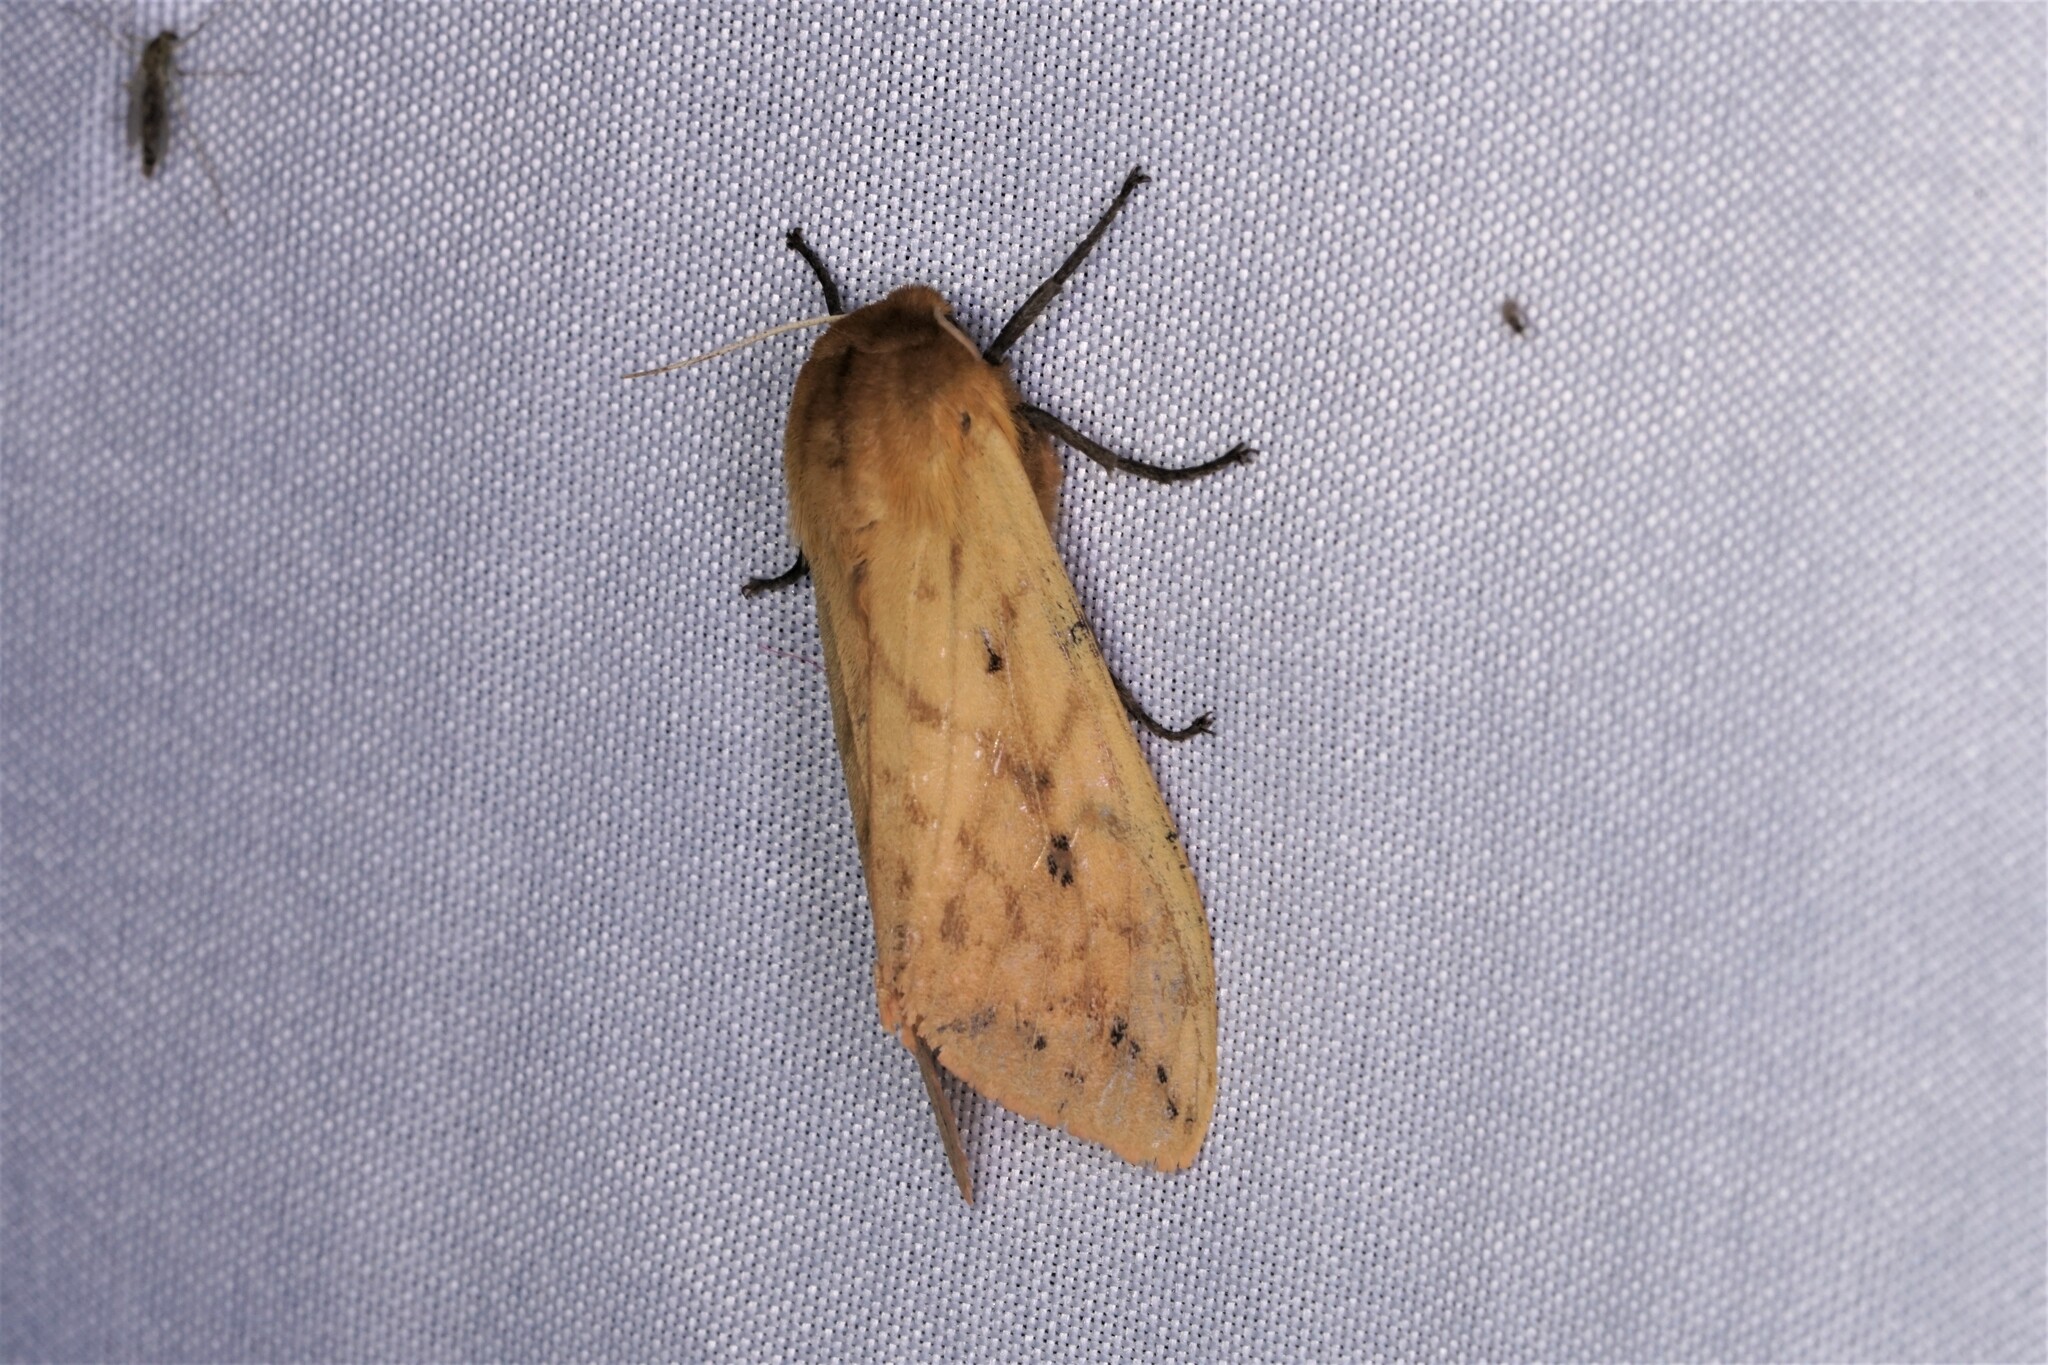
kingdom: Animalia
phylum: Arthropoda
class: Insecta
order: Lepidoptera
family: Erebidae
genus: Pyrrharctia
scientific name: Pyrrharctia isabella
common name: Isabella tiger moth
